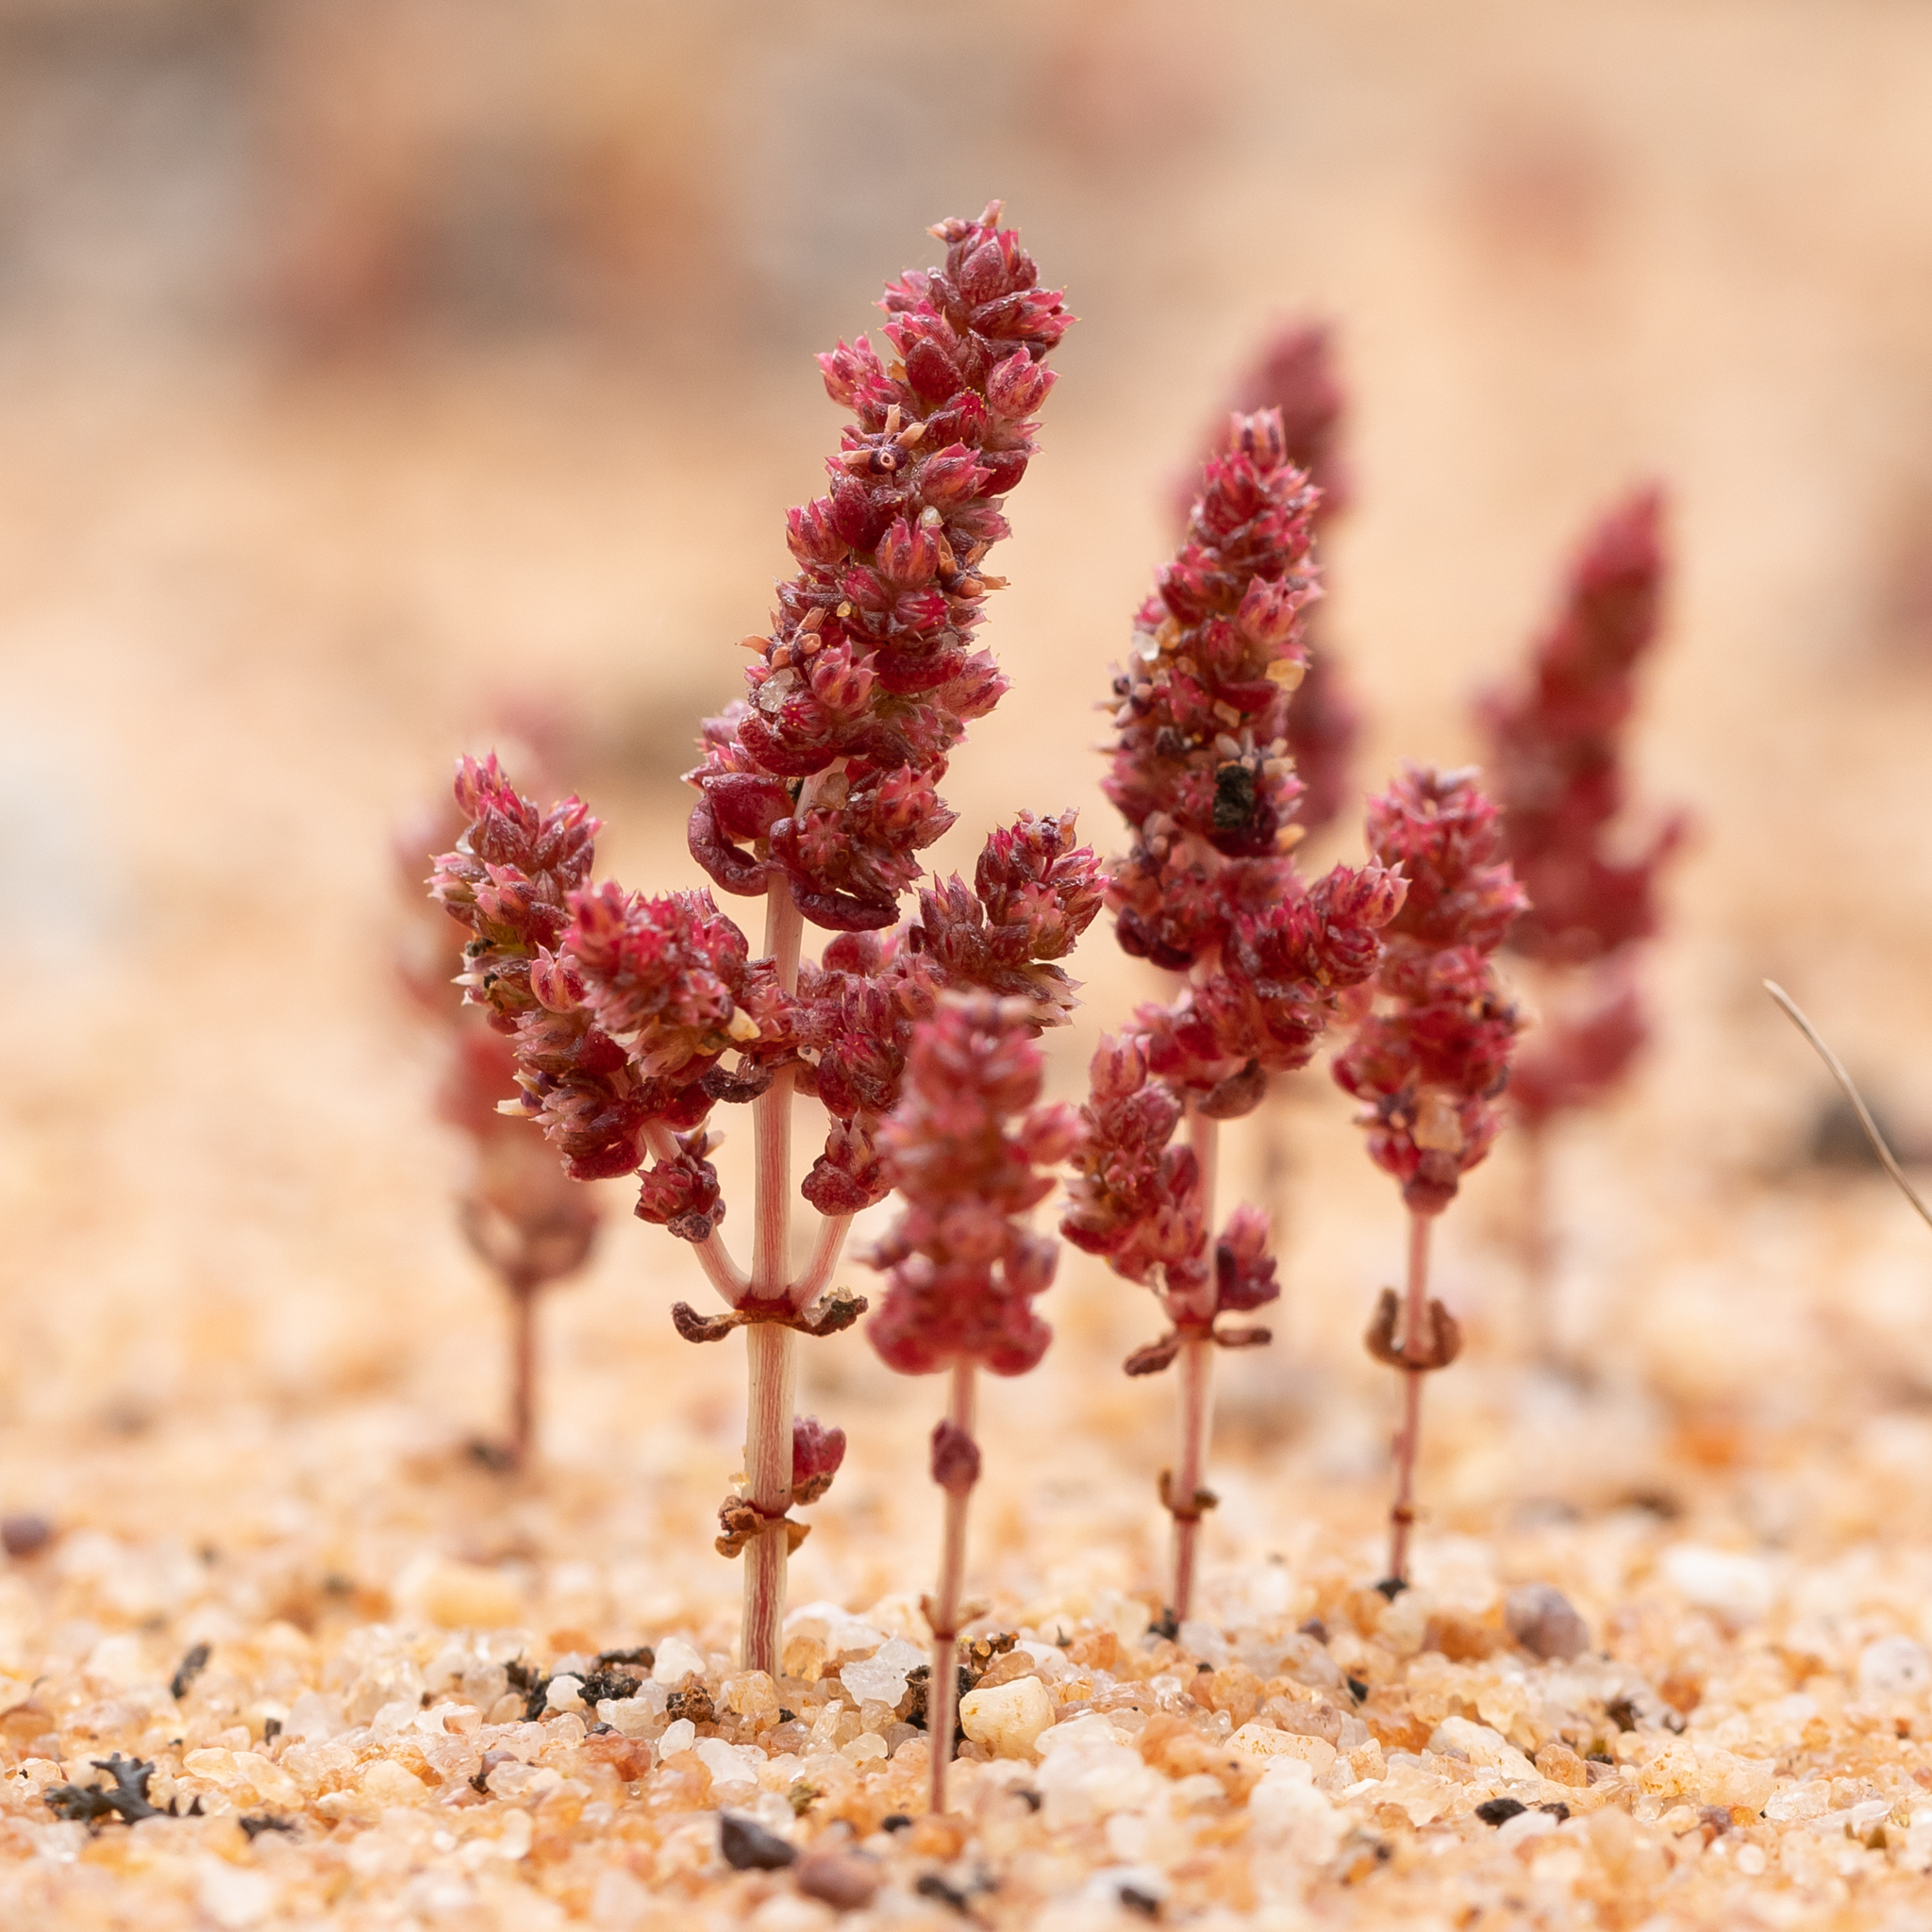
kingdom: Plantae
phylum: Tracheophyta
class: Magnoliopsida
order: Saxifragales
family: Crassulaceae
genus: Crassula
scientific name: Crassula colligata
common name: Pygmyweed
